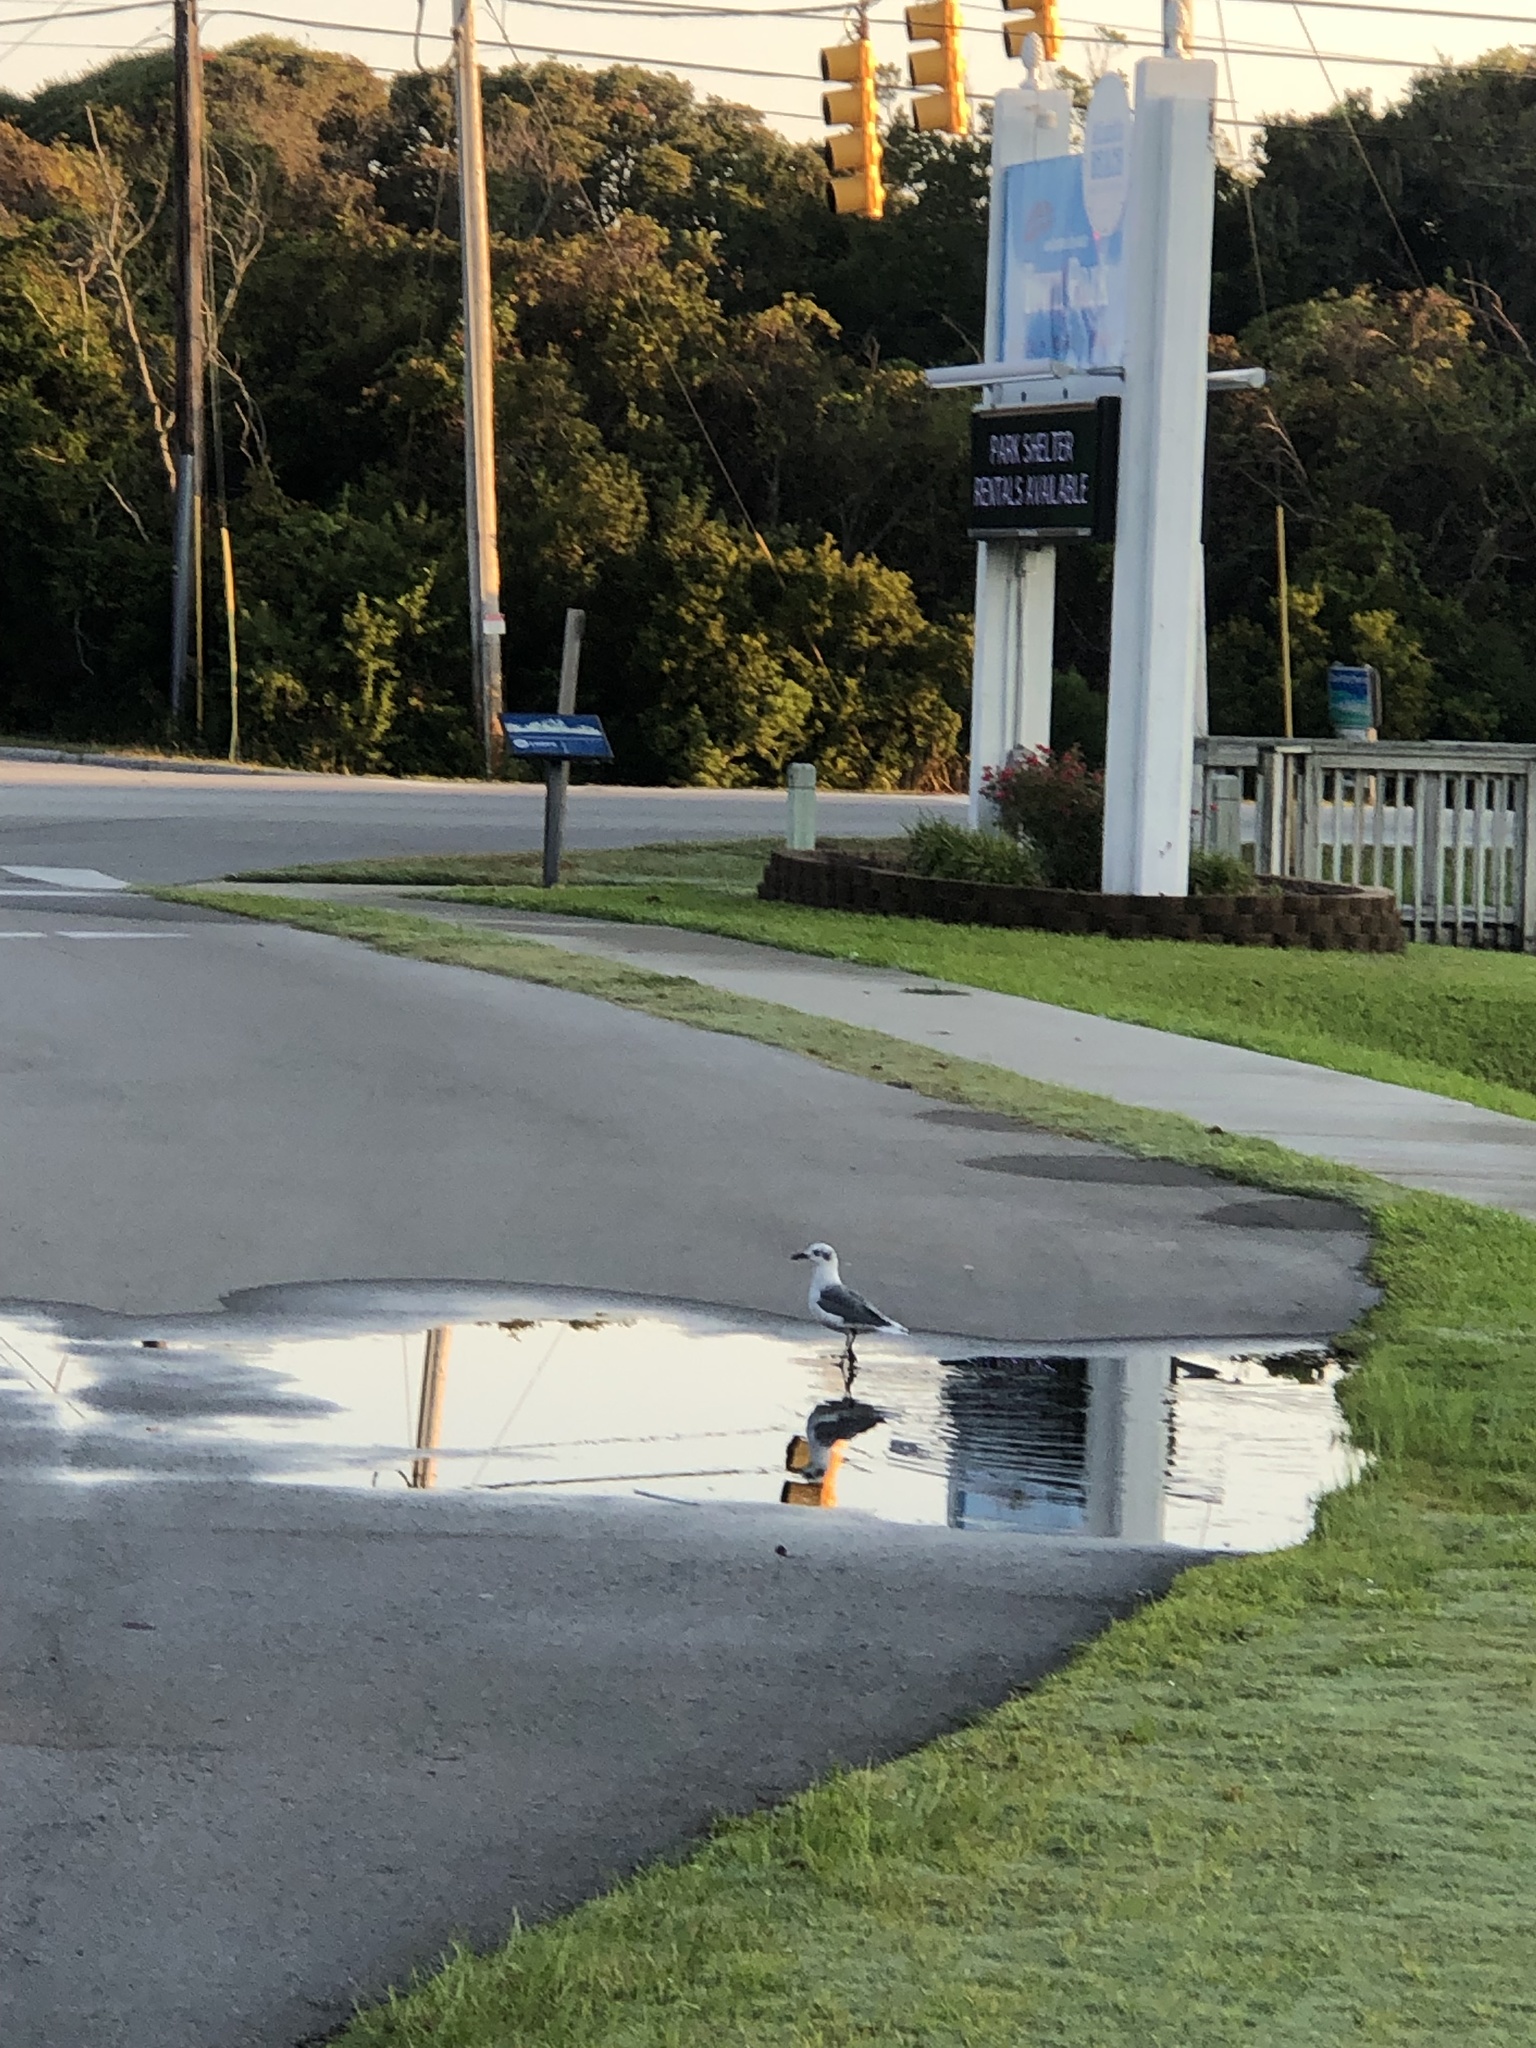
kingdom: Animalia
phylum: Chordata
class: Aves
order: Charadriiformes
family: Laridae
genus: Leucophaeus
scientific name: Leucophaeus atricilla
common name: Laughing gull
